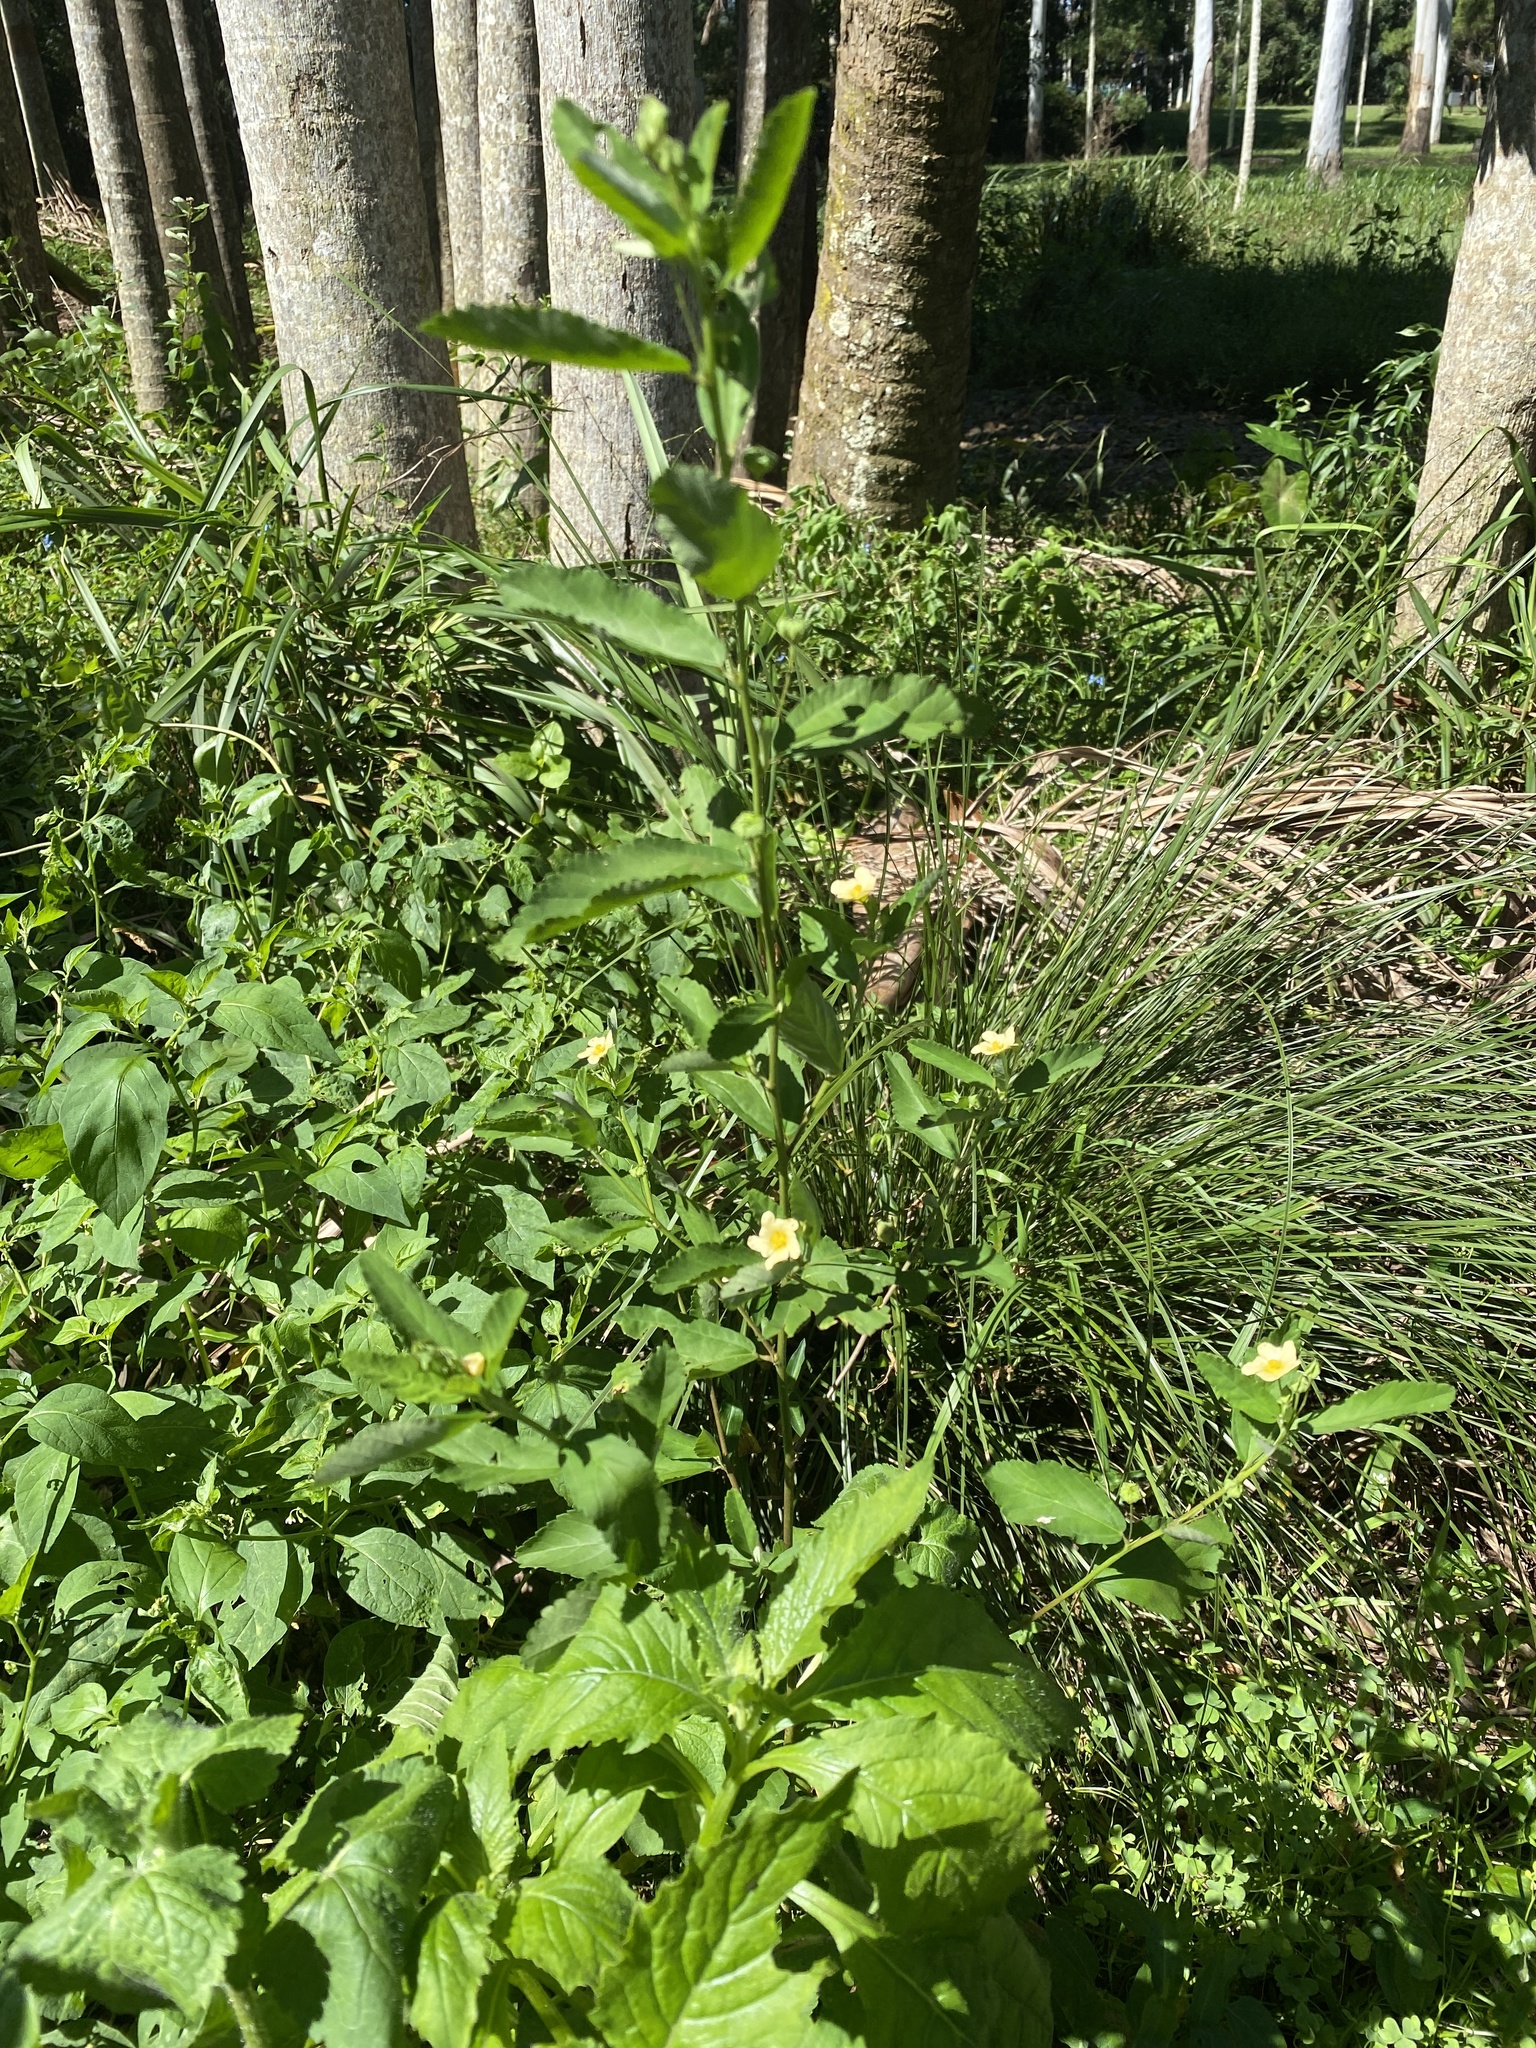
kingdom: Plantae
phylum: Tracheophyta
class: Magnoliopsida
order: Malvales
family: Malvaceae
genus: Sida
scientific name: Sida rhombifolia
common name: Queensland-hemp
